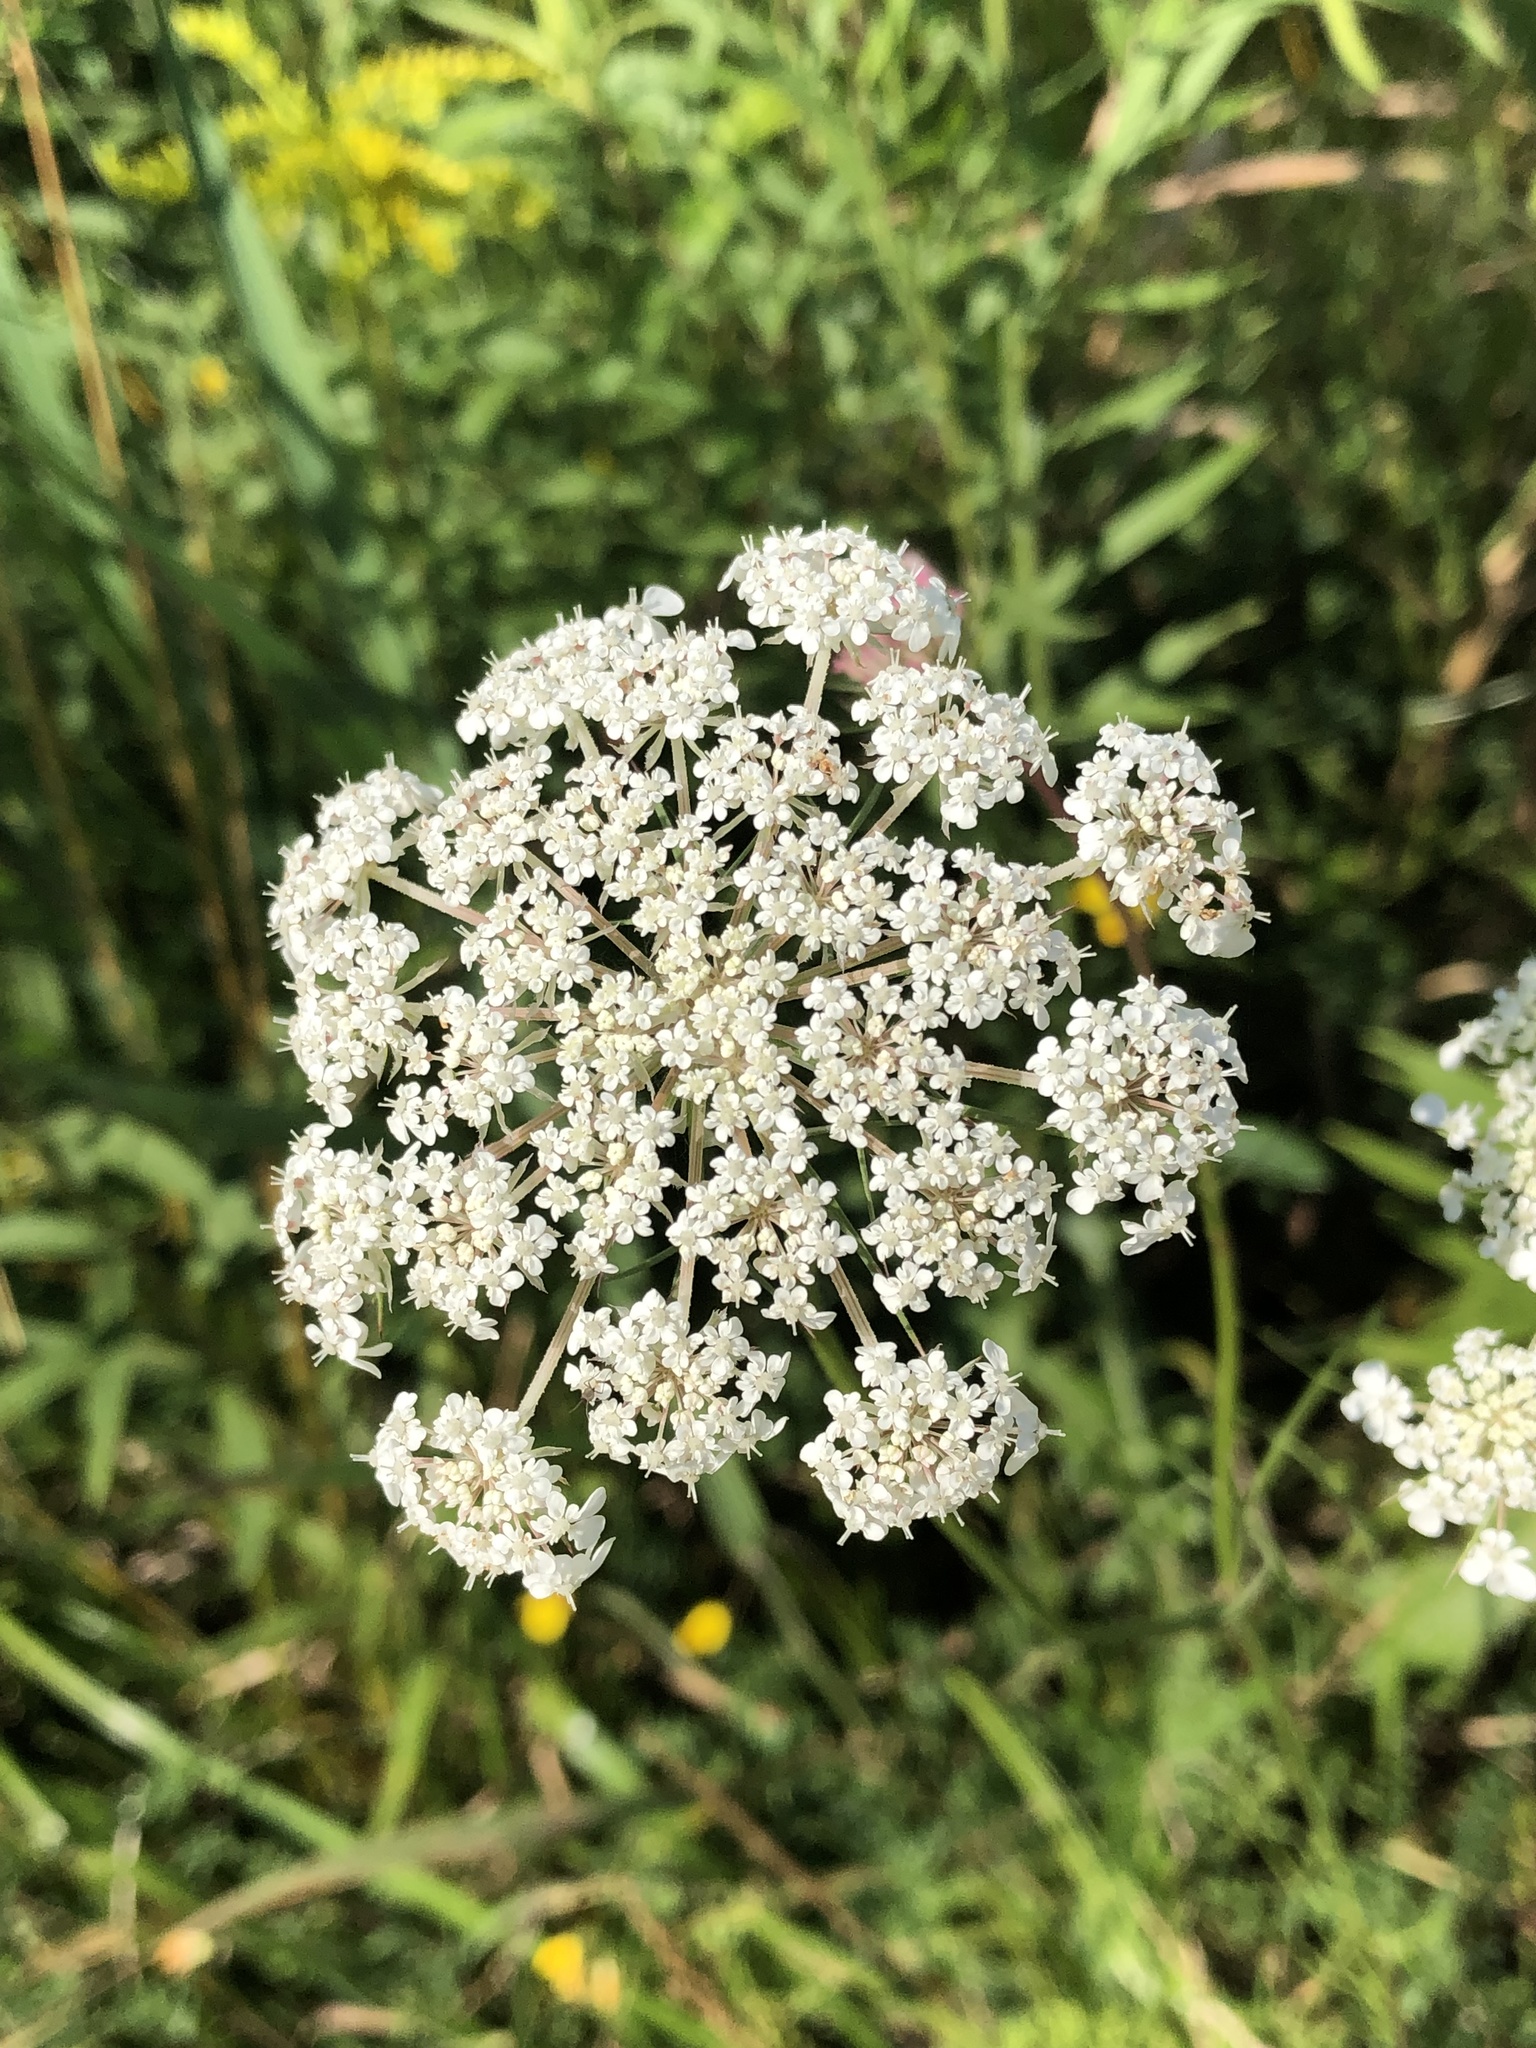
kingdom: Plantae
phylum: Tracheophyta
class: Magnoliopsida
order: Apiales
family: Apiaceae
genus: Daucus
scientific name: Daucus carota
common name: Wild carrot
